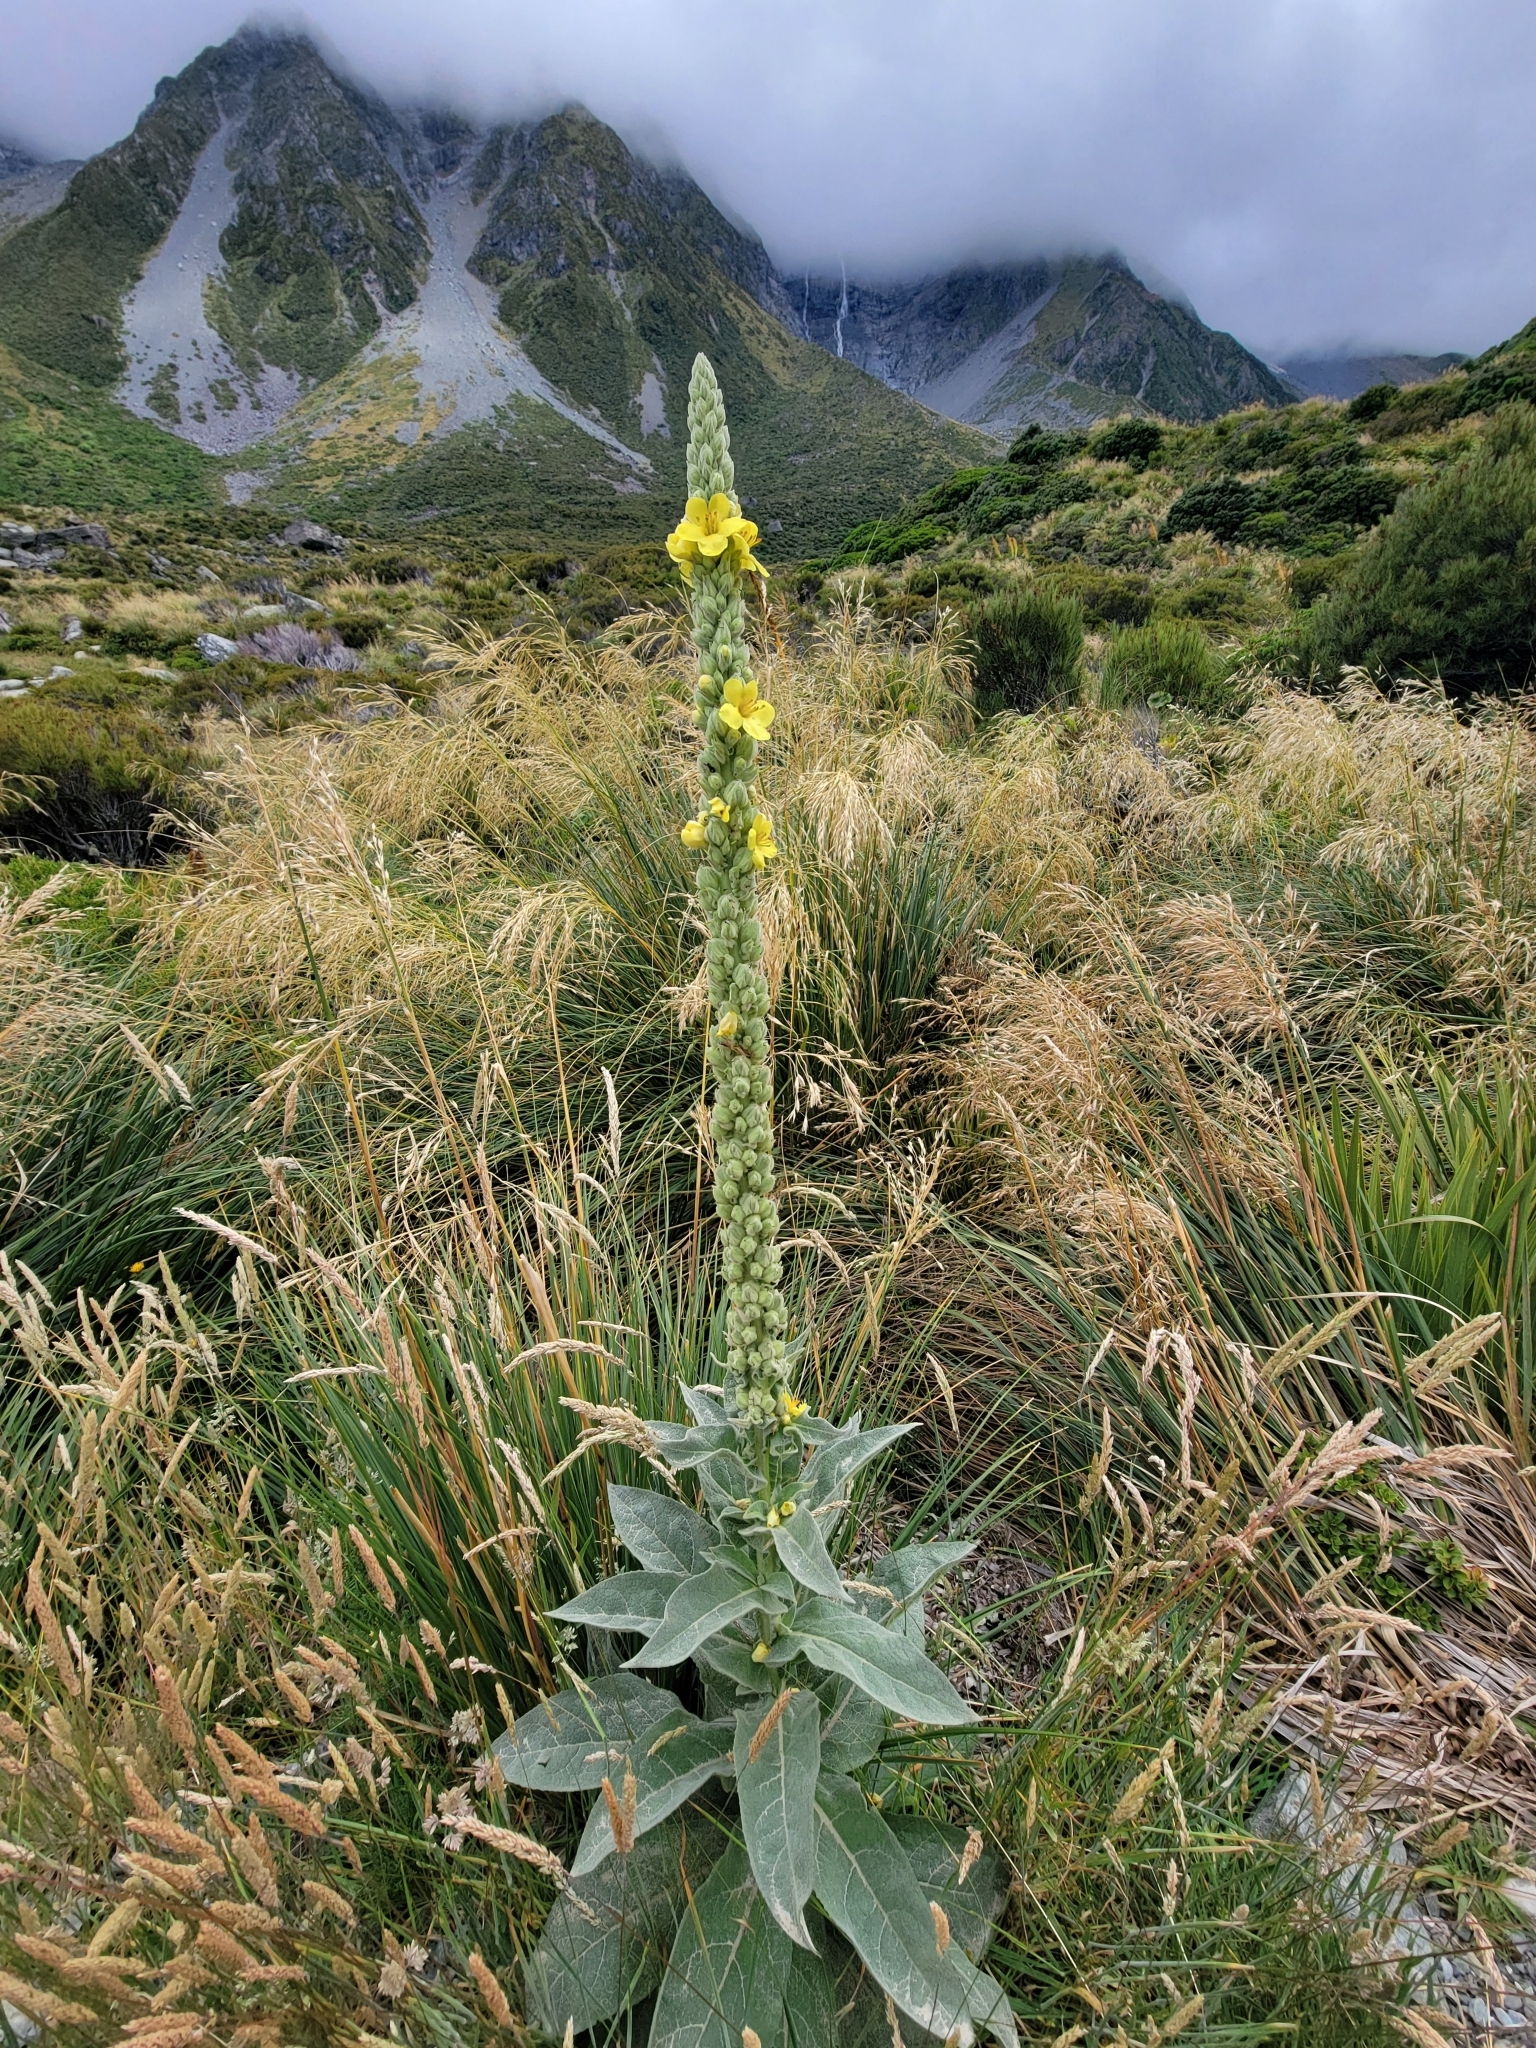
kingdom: Plantae
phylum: Tracheophyta
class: Magnoliopsida
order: Lamiales
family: Scrophulariaceae
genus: Verbascum
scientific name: Verbascum thapsus
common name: Common mullein
